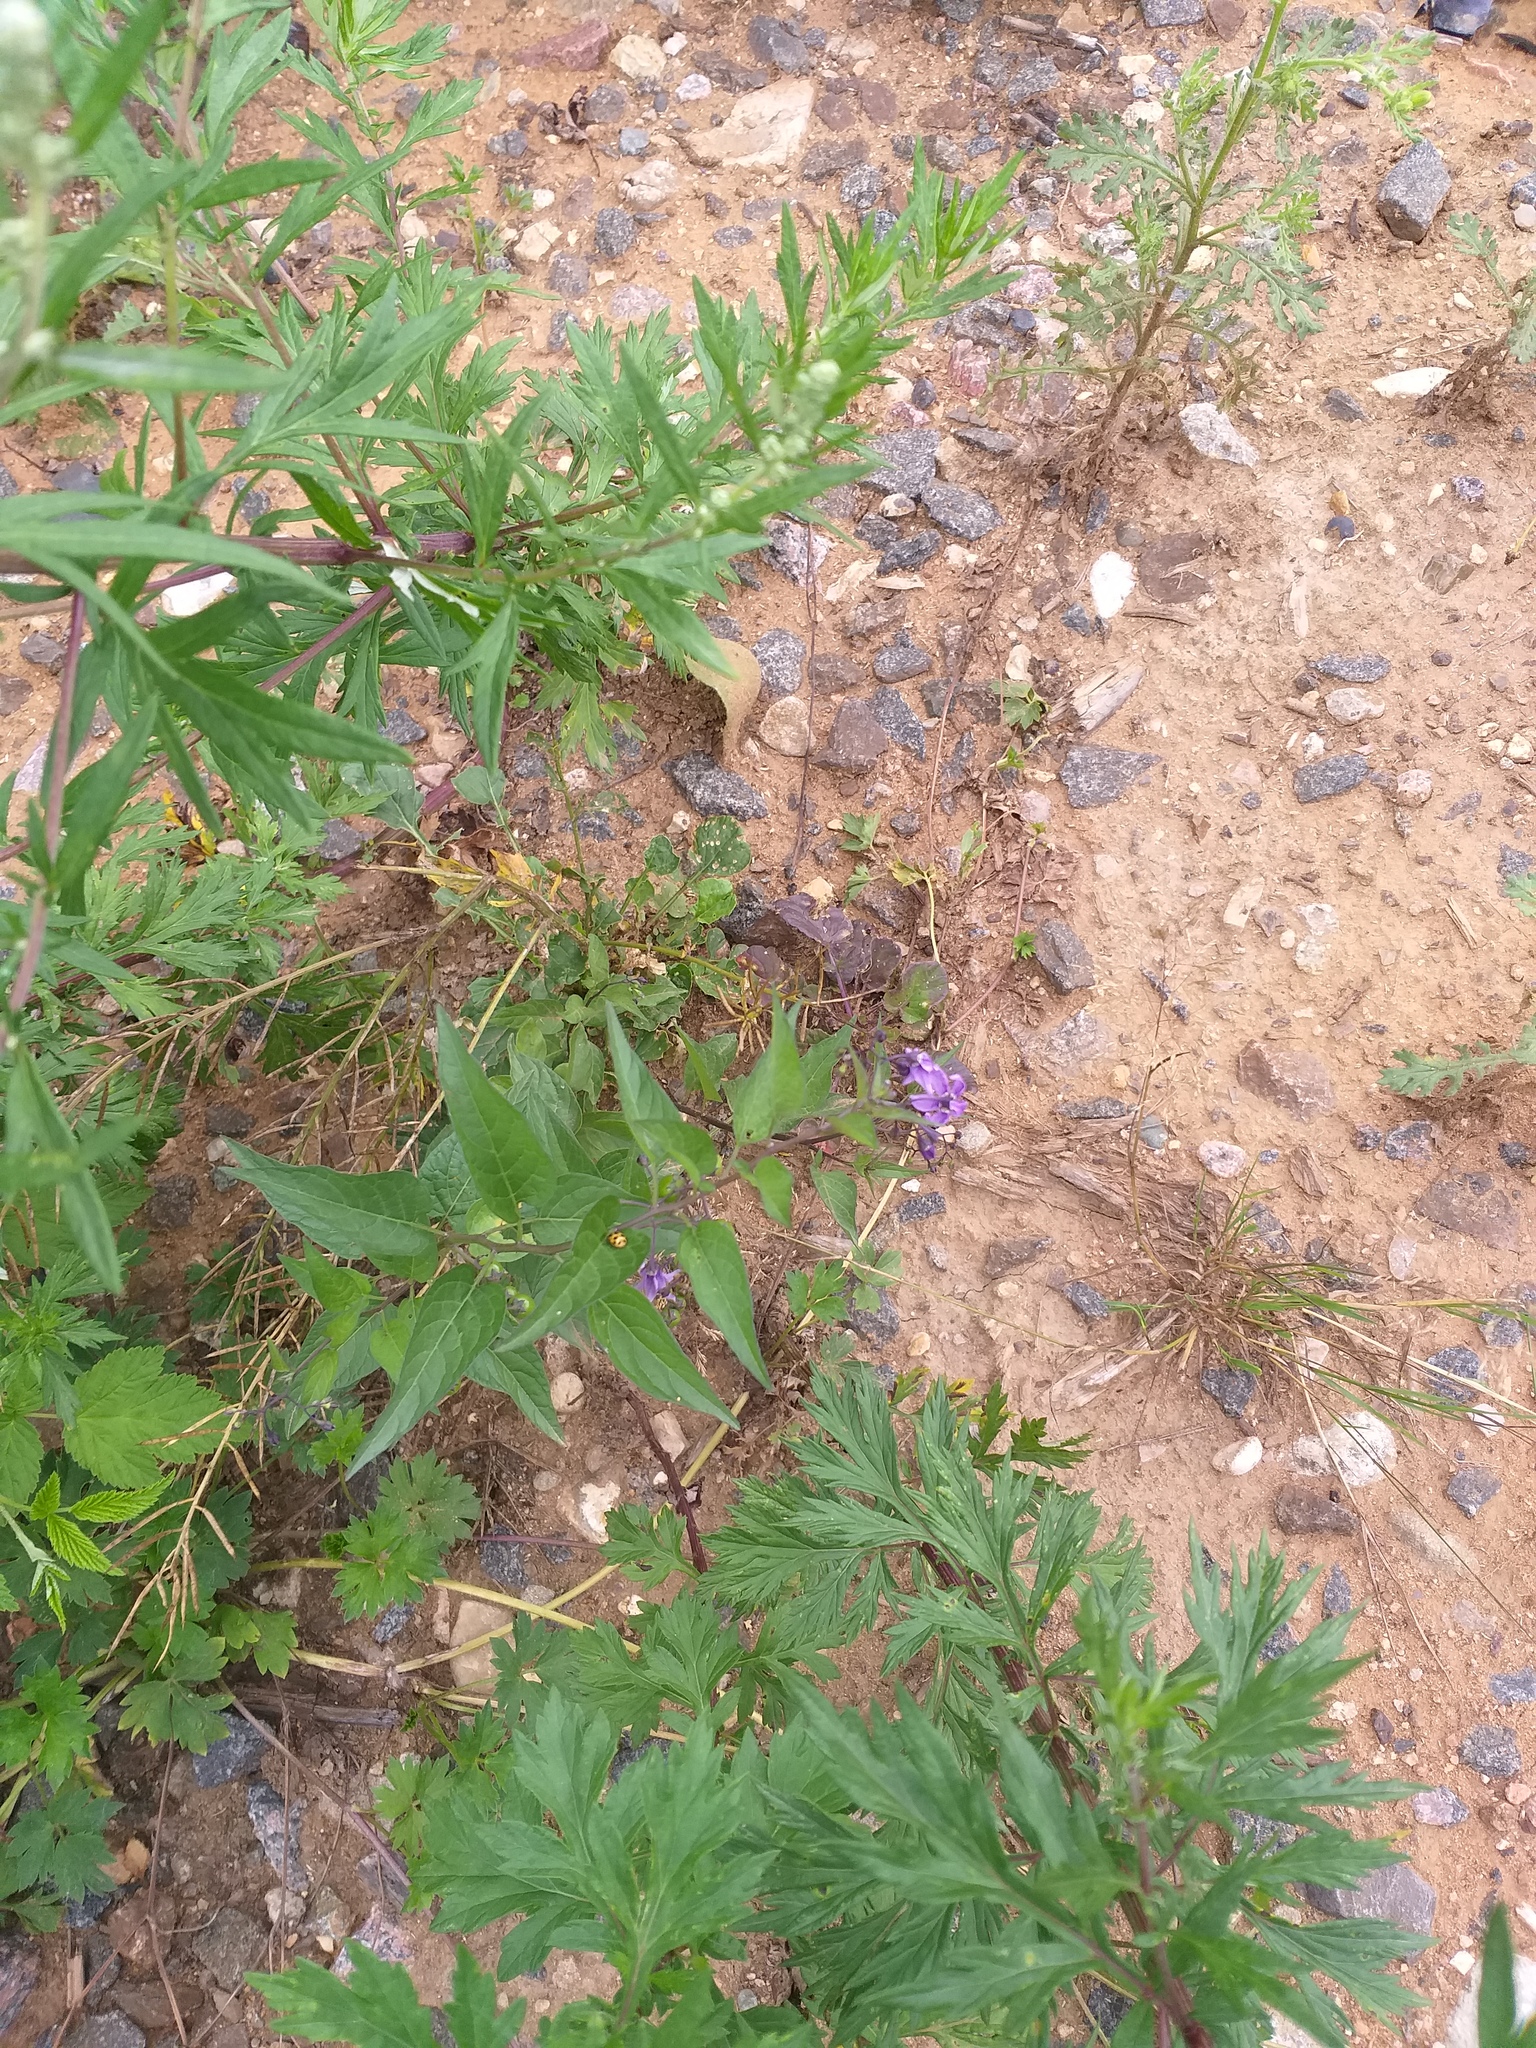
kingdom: Plantae
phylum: Tracheophyta
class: Magnoliopsida
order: Solanales
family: Solanaceae
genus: Solanum
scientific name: Solanum dulcamara
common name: Climbing nightshade
